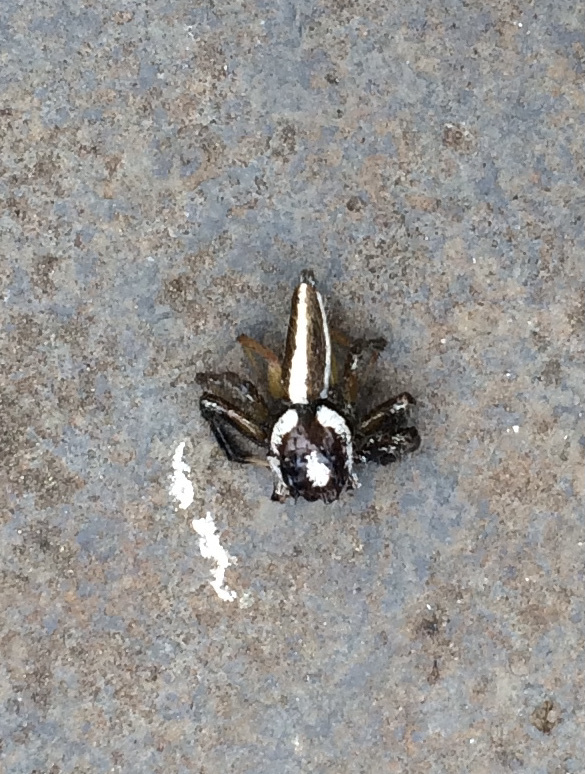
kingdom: Animalia
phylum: Arthropoda
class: Arachnida
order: Araneae
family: Salticidae
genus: Telamonia
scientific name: Telamonia dimidiata
